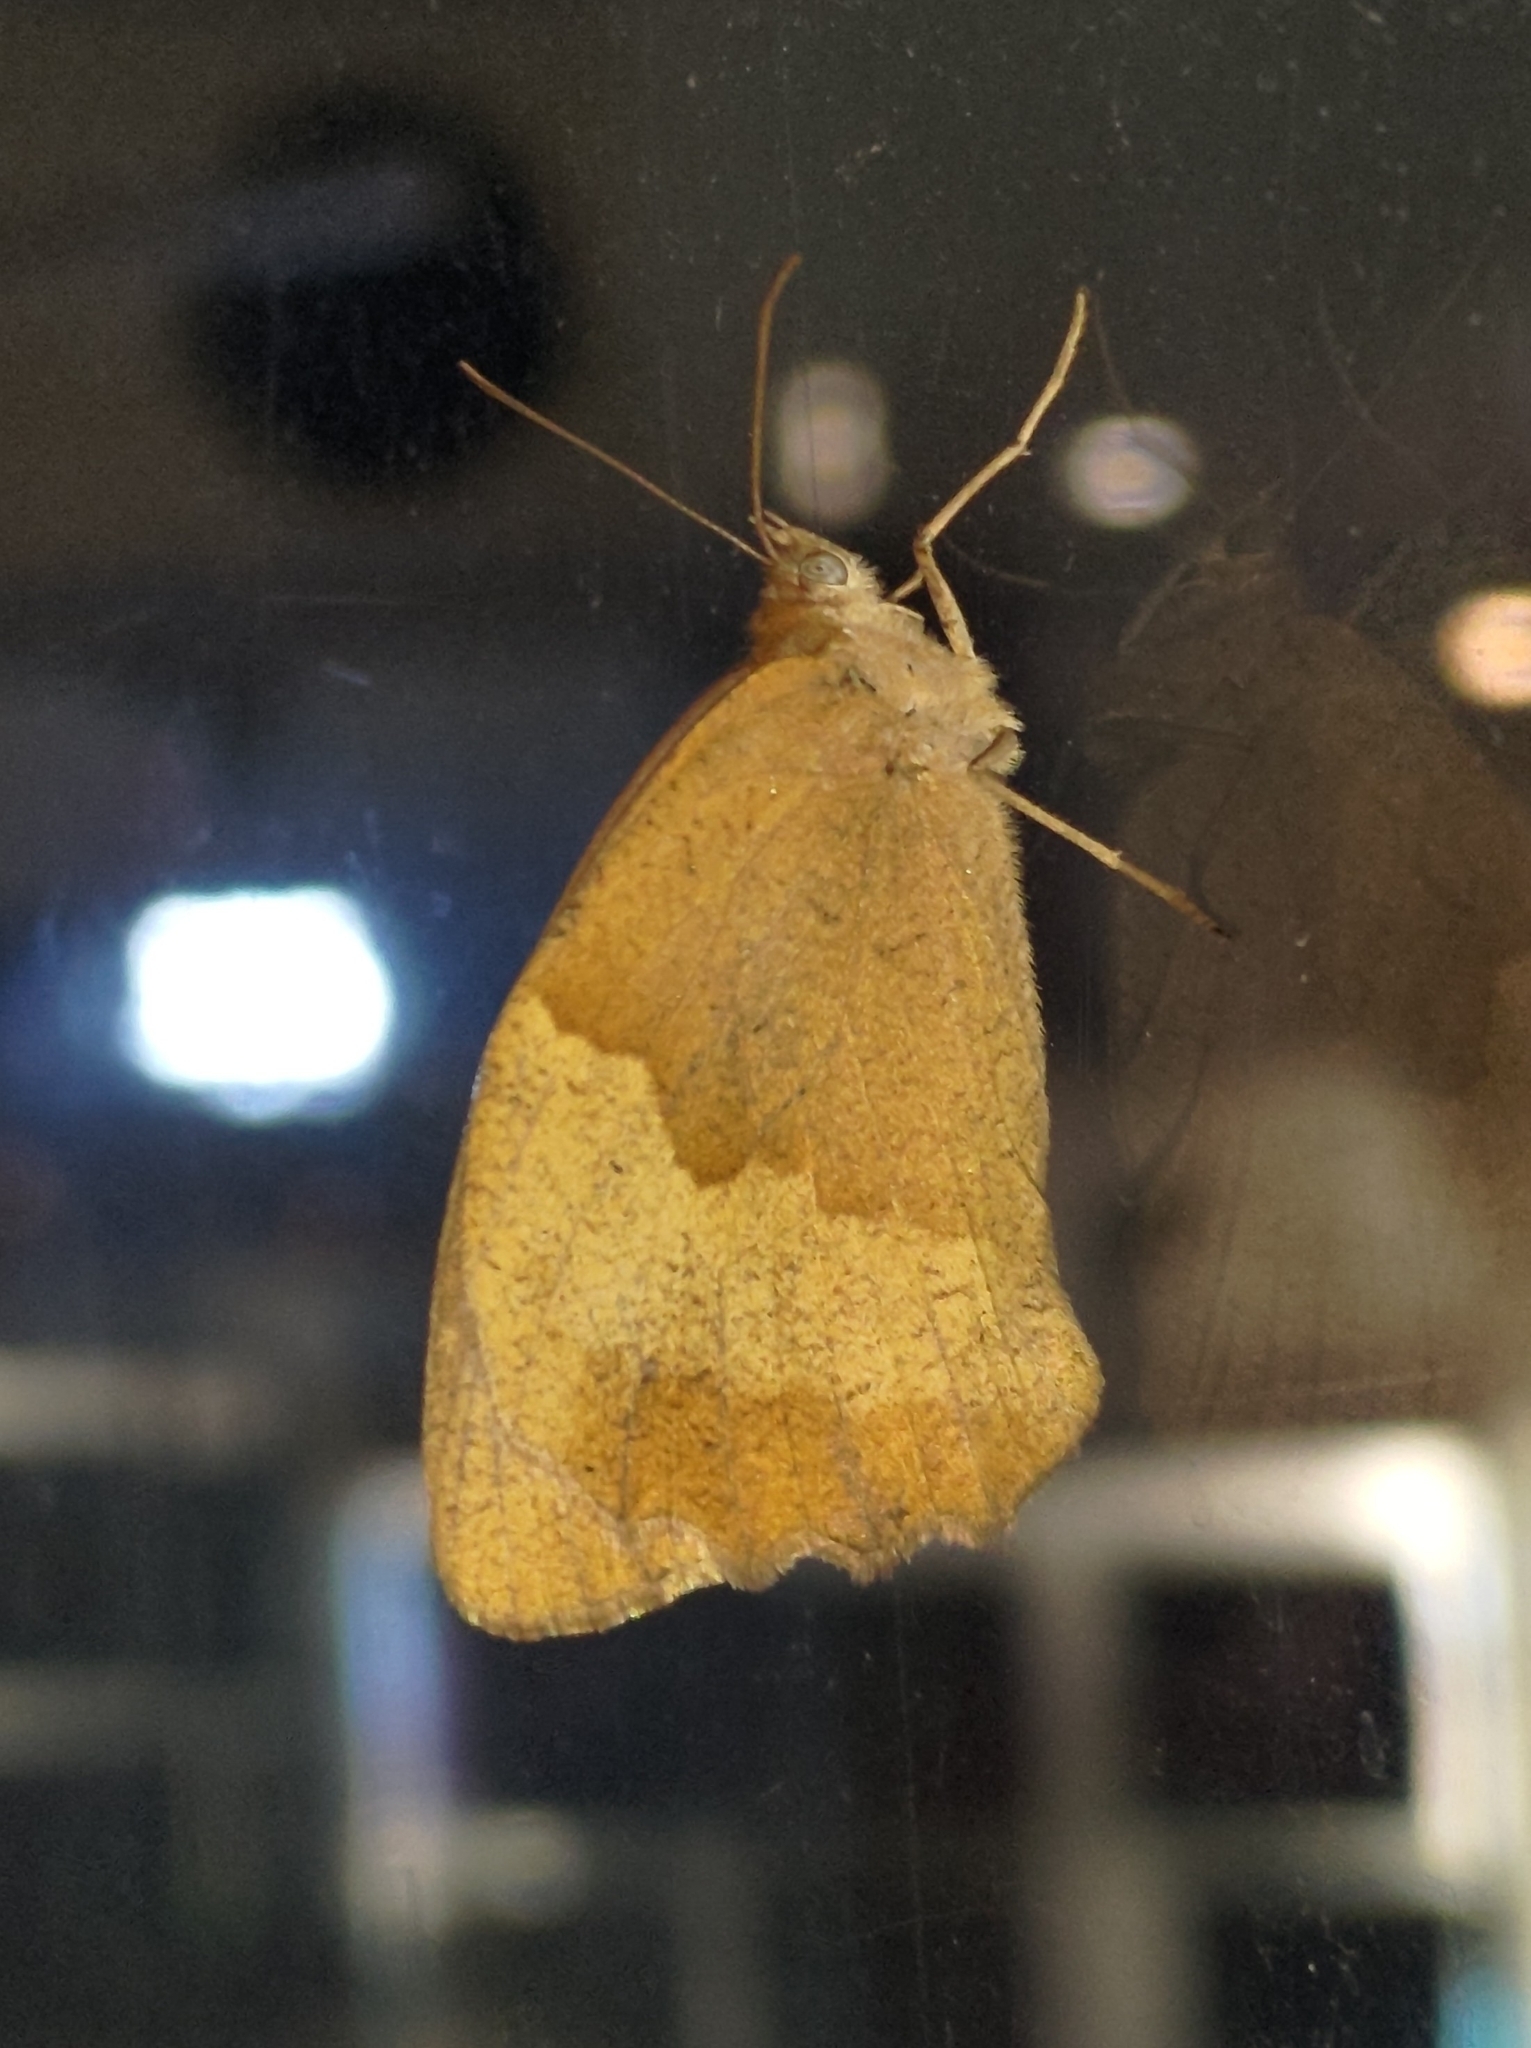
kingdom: Animalia
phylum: Arthropoda
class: Insecta
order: Lepidoptera
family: Nymphalidae
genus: Maniola
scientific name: Maniola jurtina
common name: Meadow brown
